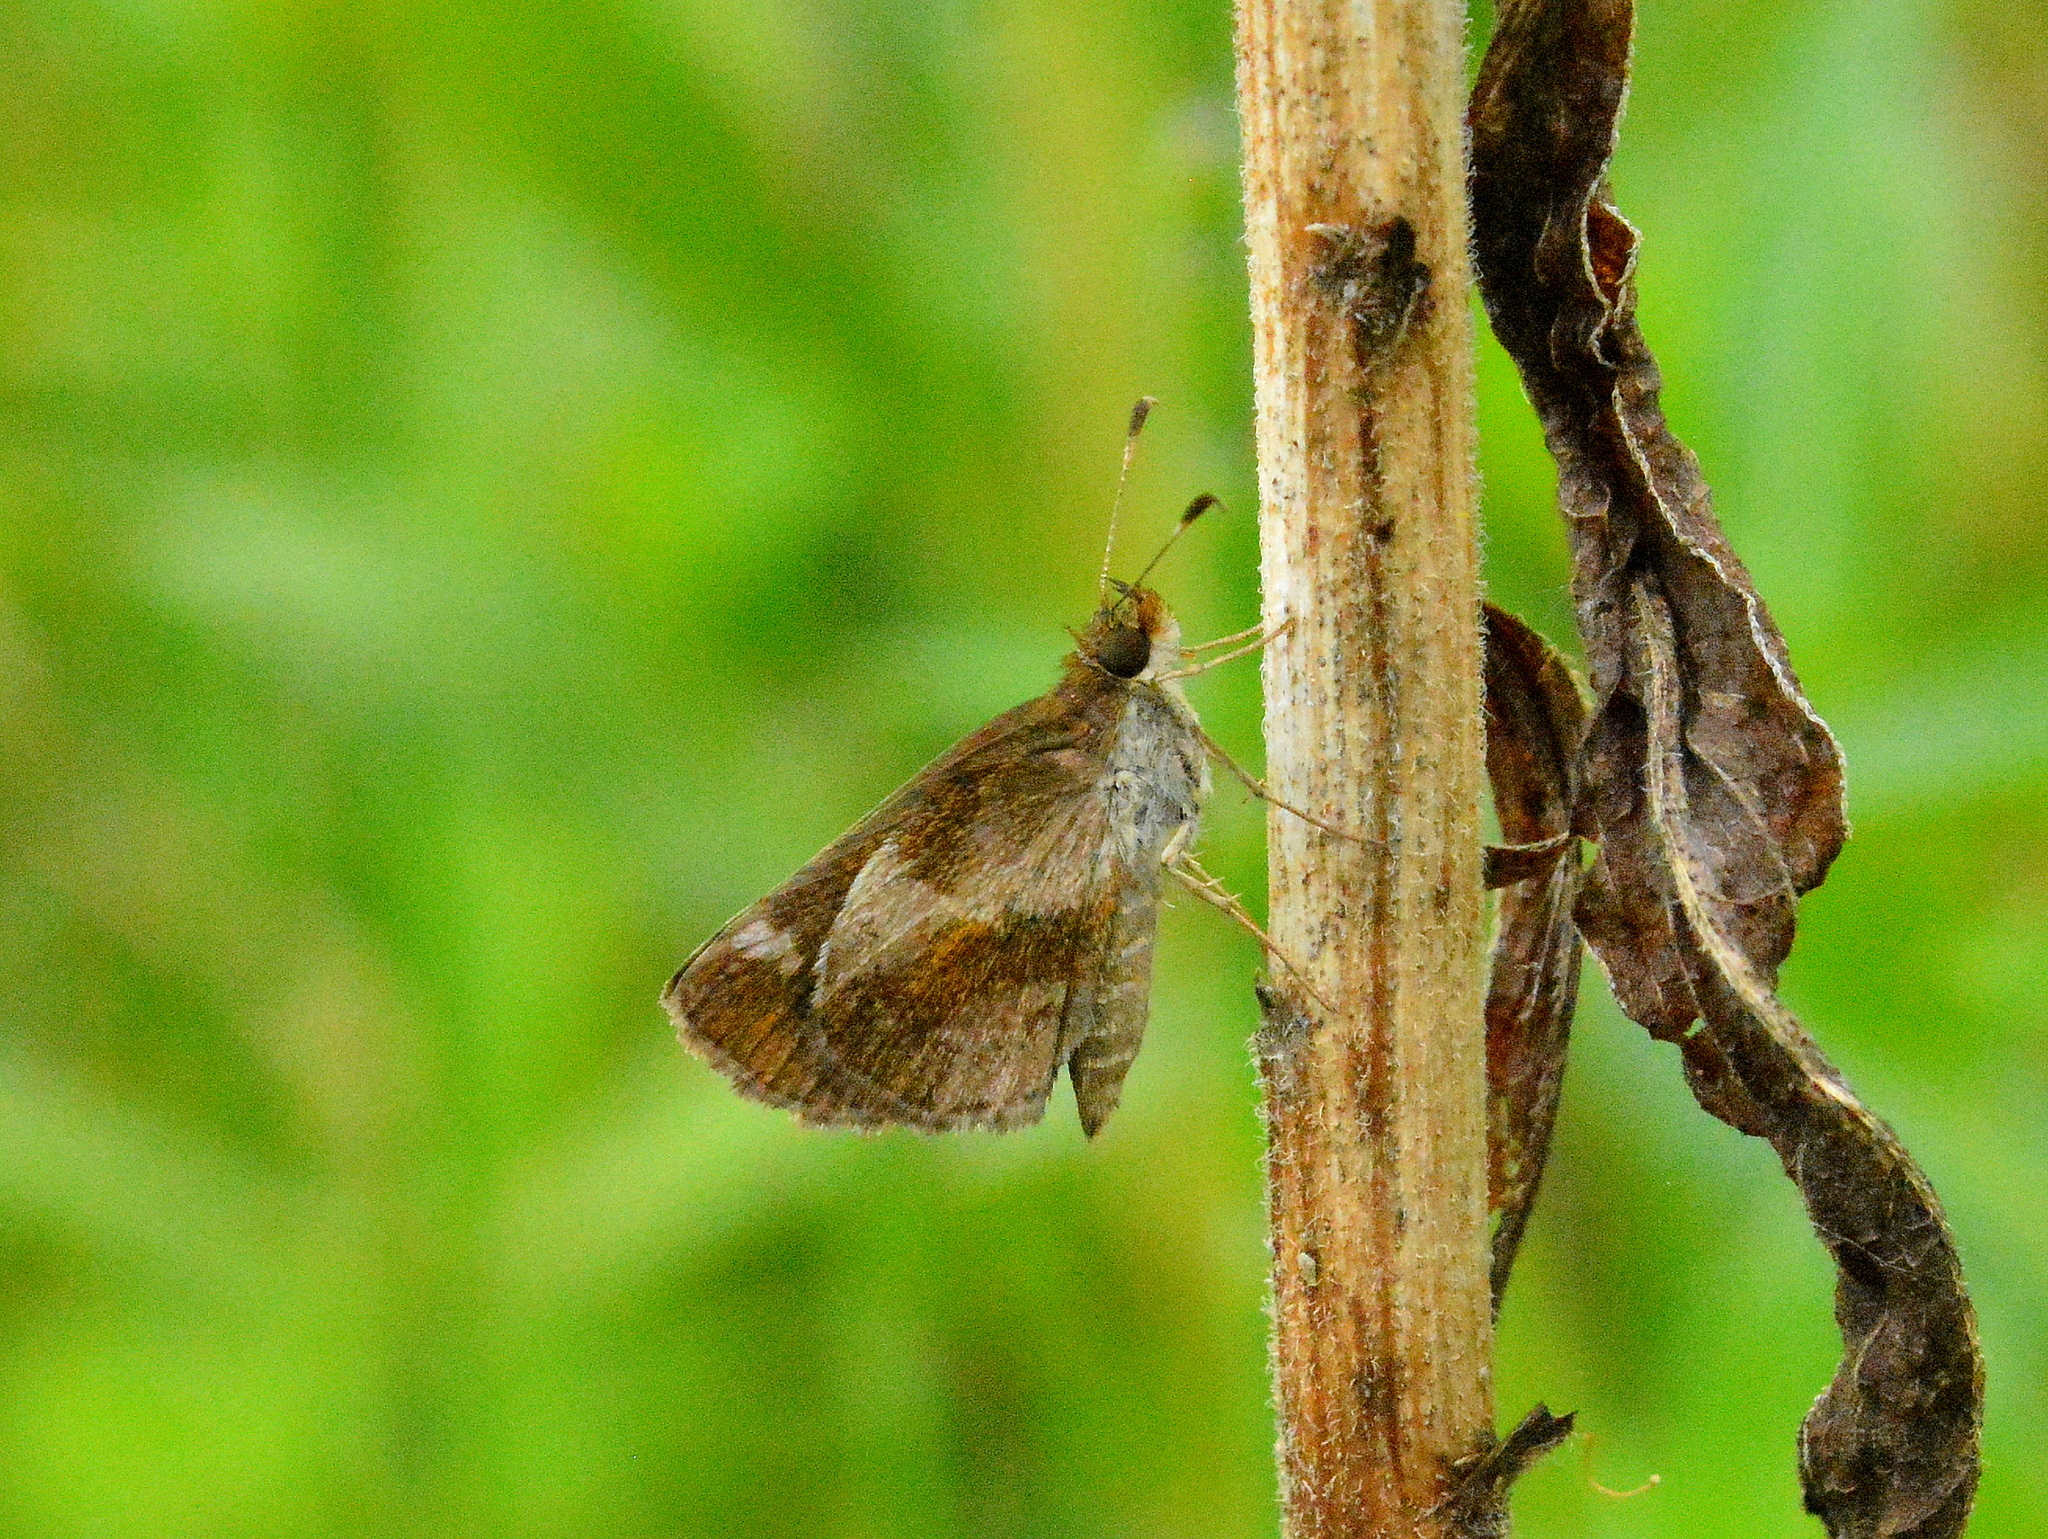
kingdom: Animalia
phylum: Arthropoda
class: Insecta
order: Lepidoptera
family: Hesperiidae
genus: Callimormus
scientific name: Callimormus
